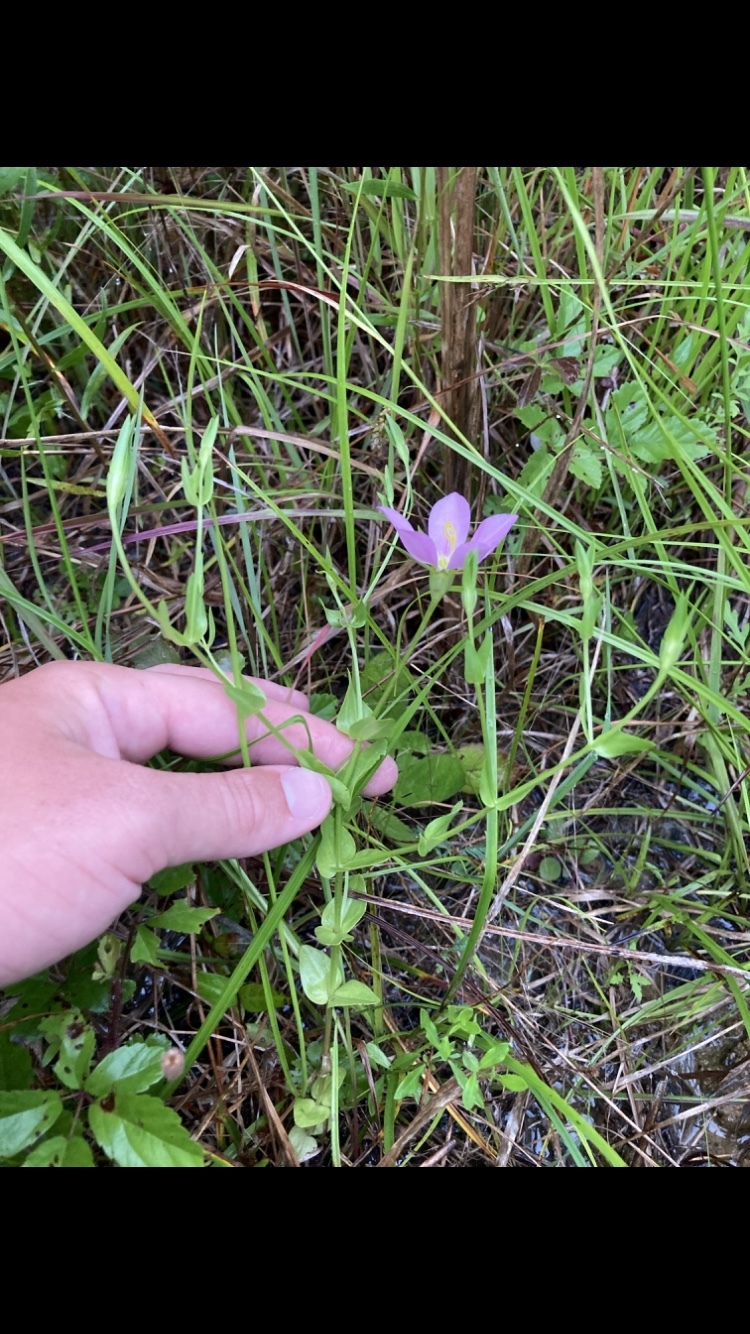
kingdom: Plantae
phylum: Tracheophyta
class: Magnoliopsida
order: Gentianales
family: Gentianaceae
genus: Sabatia
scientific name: Sabatia campestris
